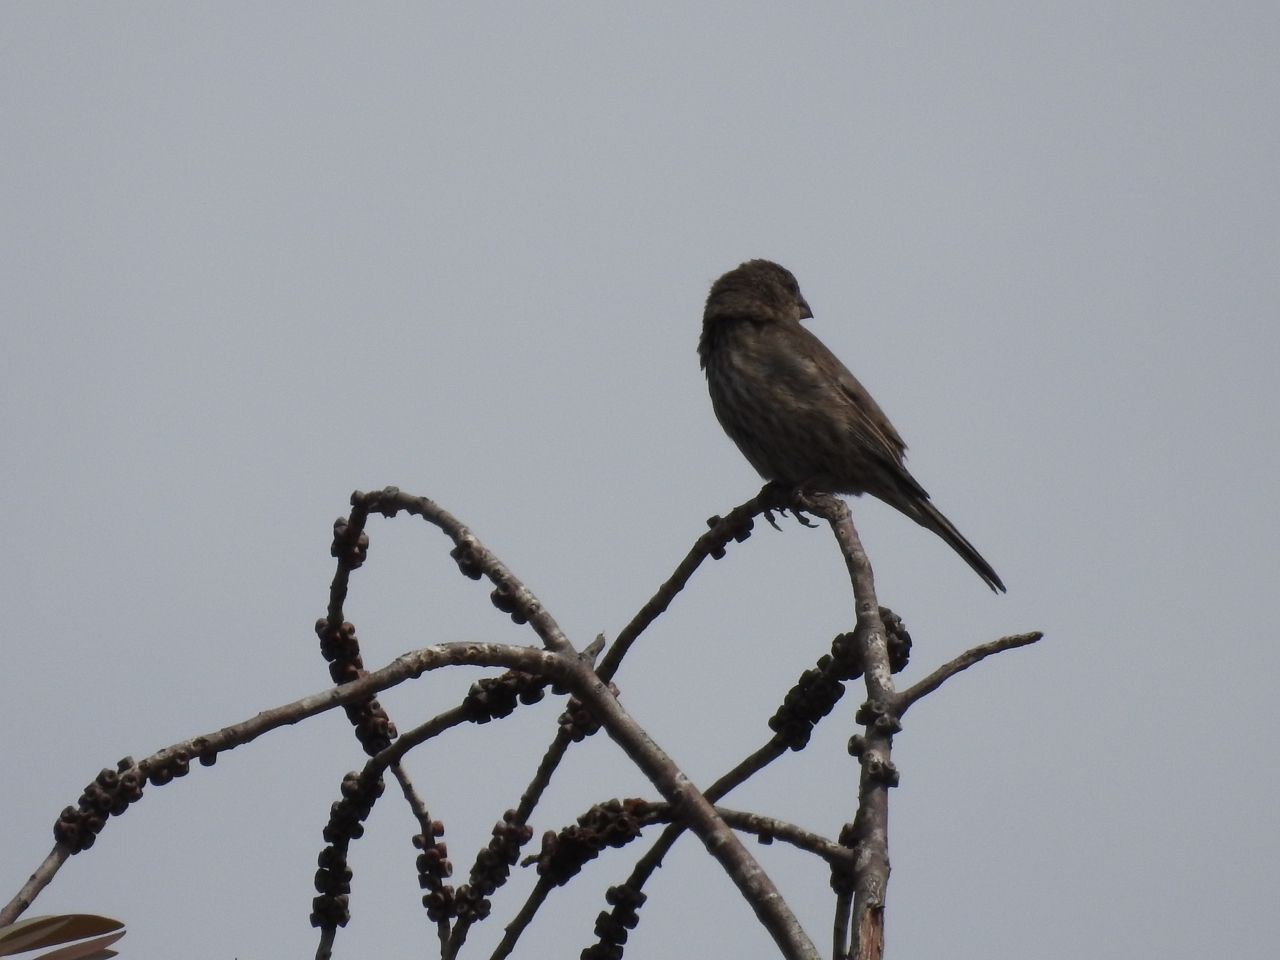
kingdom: Animalia
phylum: Chordata
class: Aves
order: Passeriformes
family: Fringillidae
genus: Haemorhous
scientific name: Haemorhous mexicanus
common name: House finch
